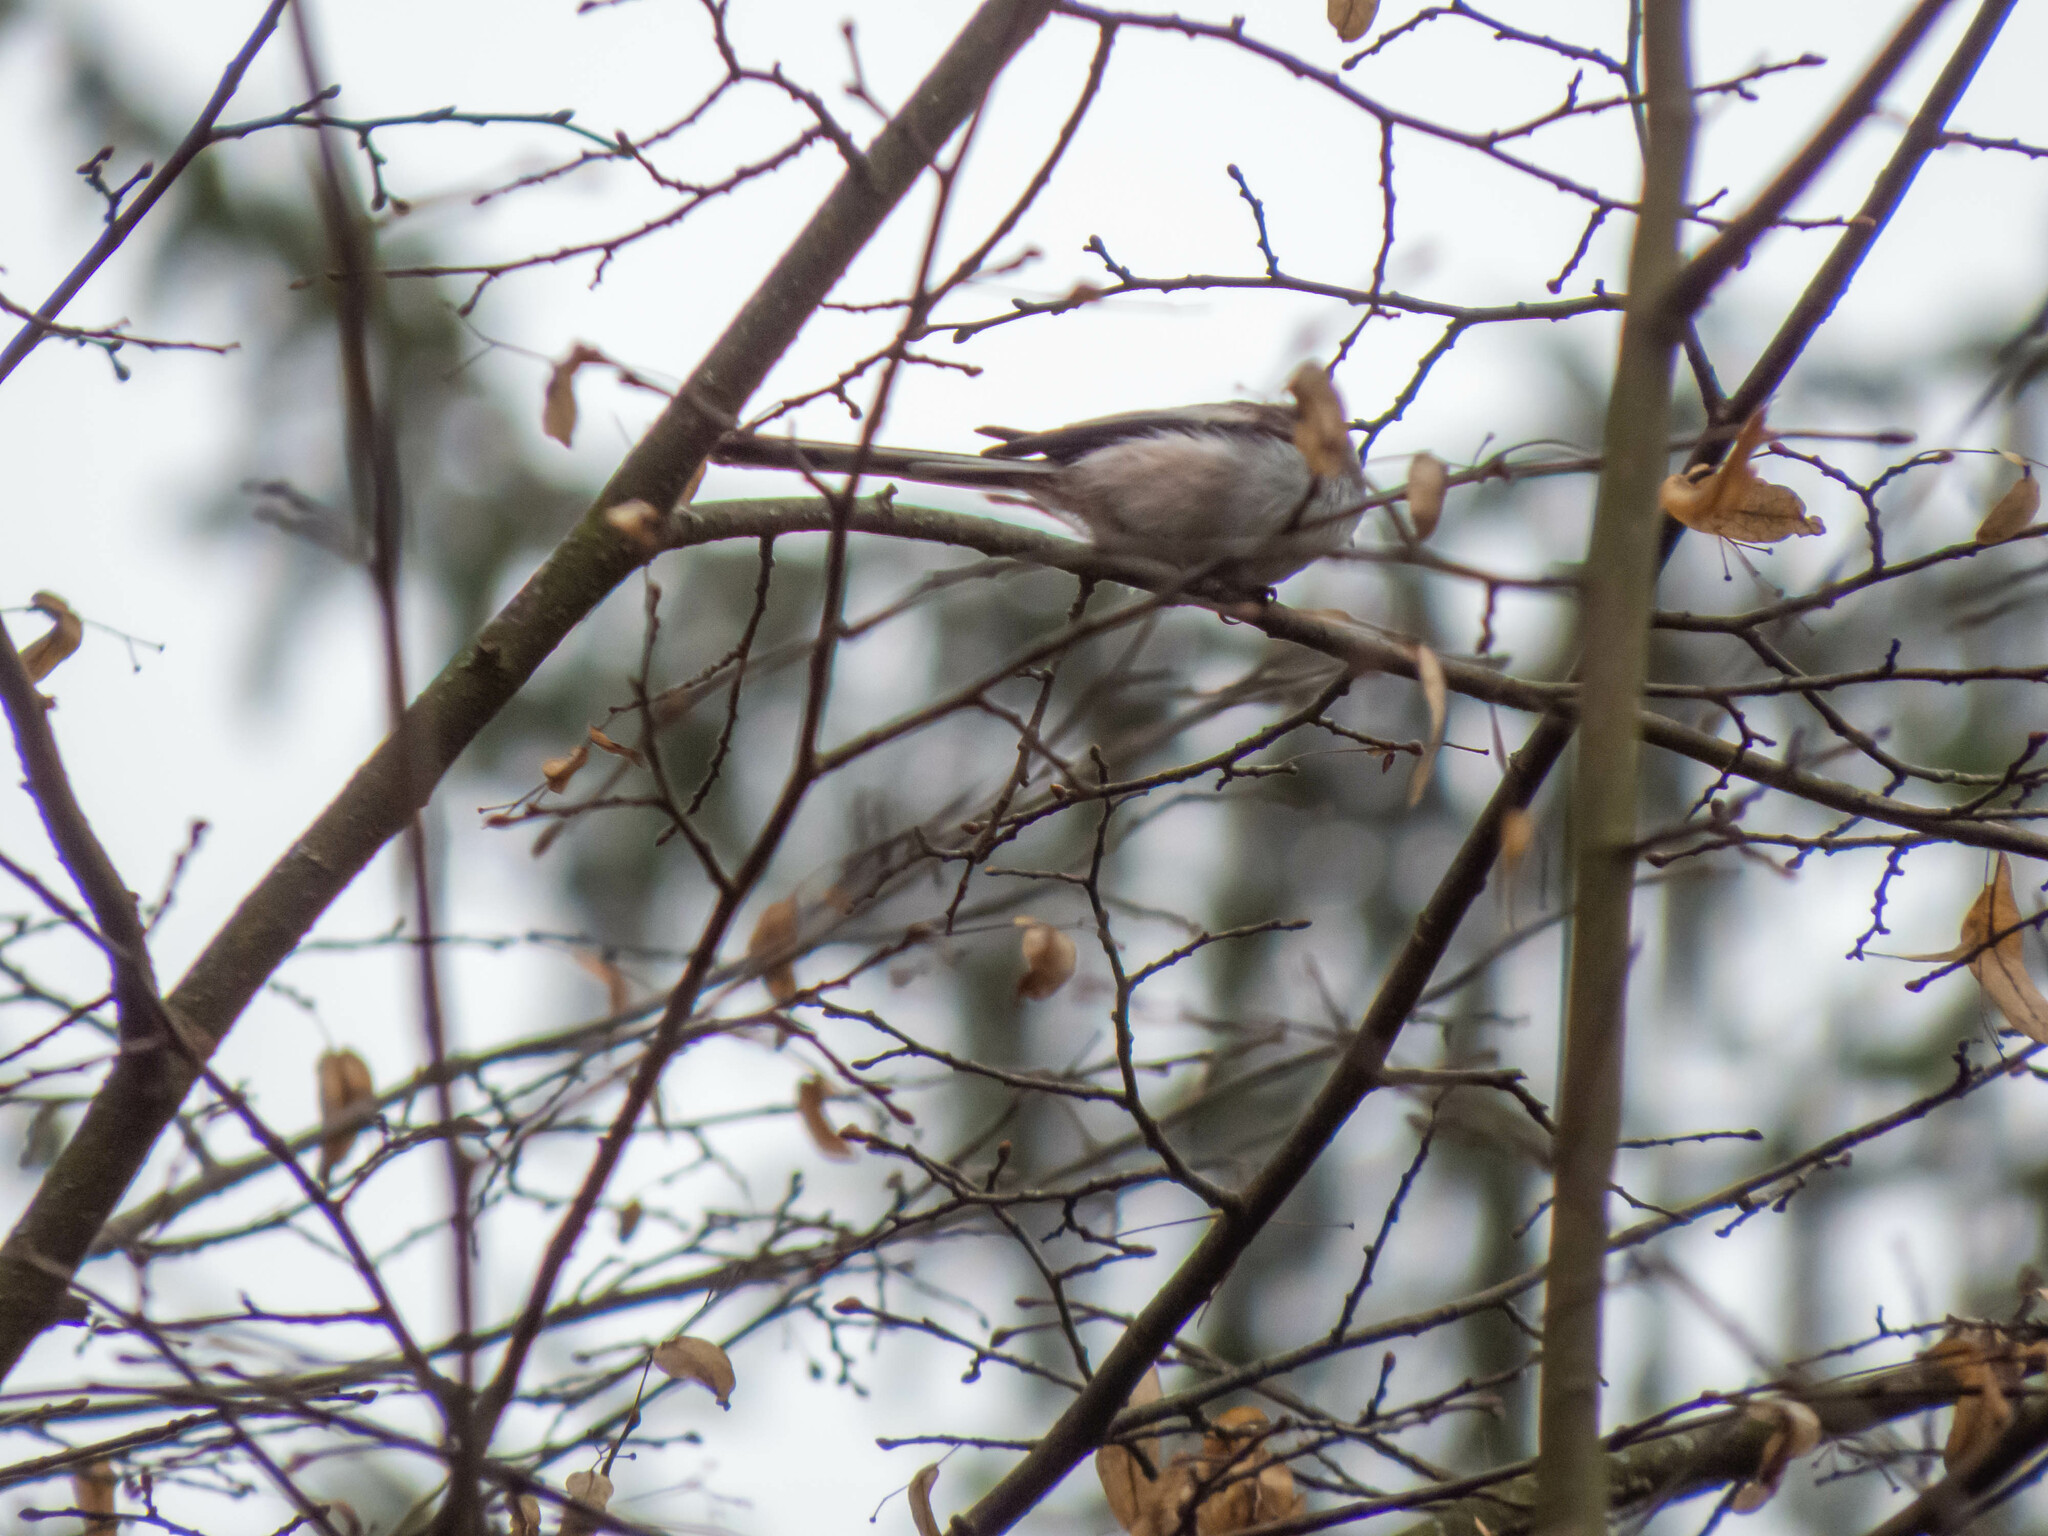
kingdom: Animalia
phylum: Chordata
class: Aves
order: Passeriformes
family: Aegithalidae
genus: Aegithalos
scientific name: Aegithalos caudatus
